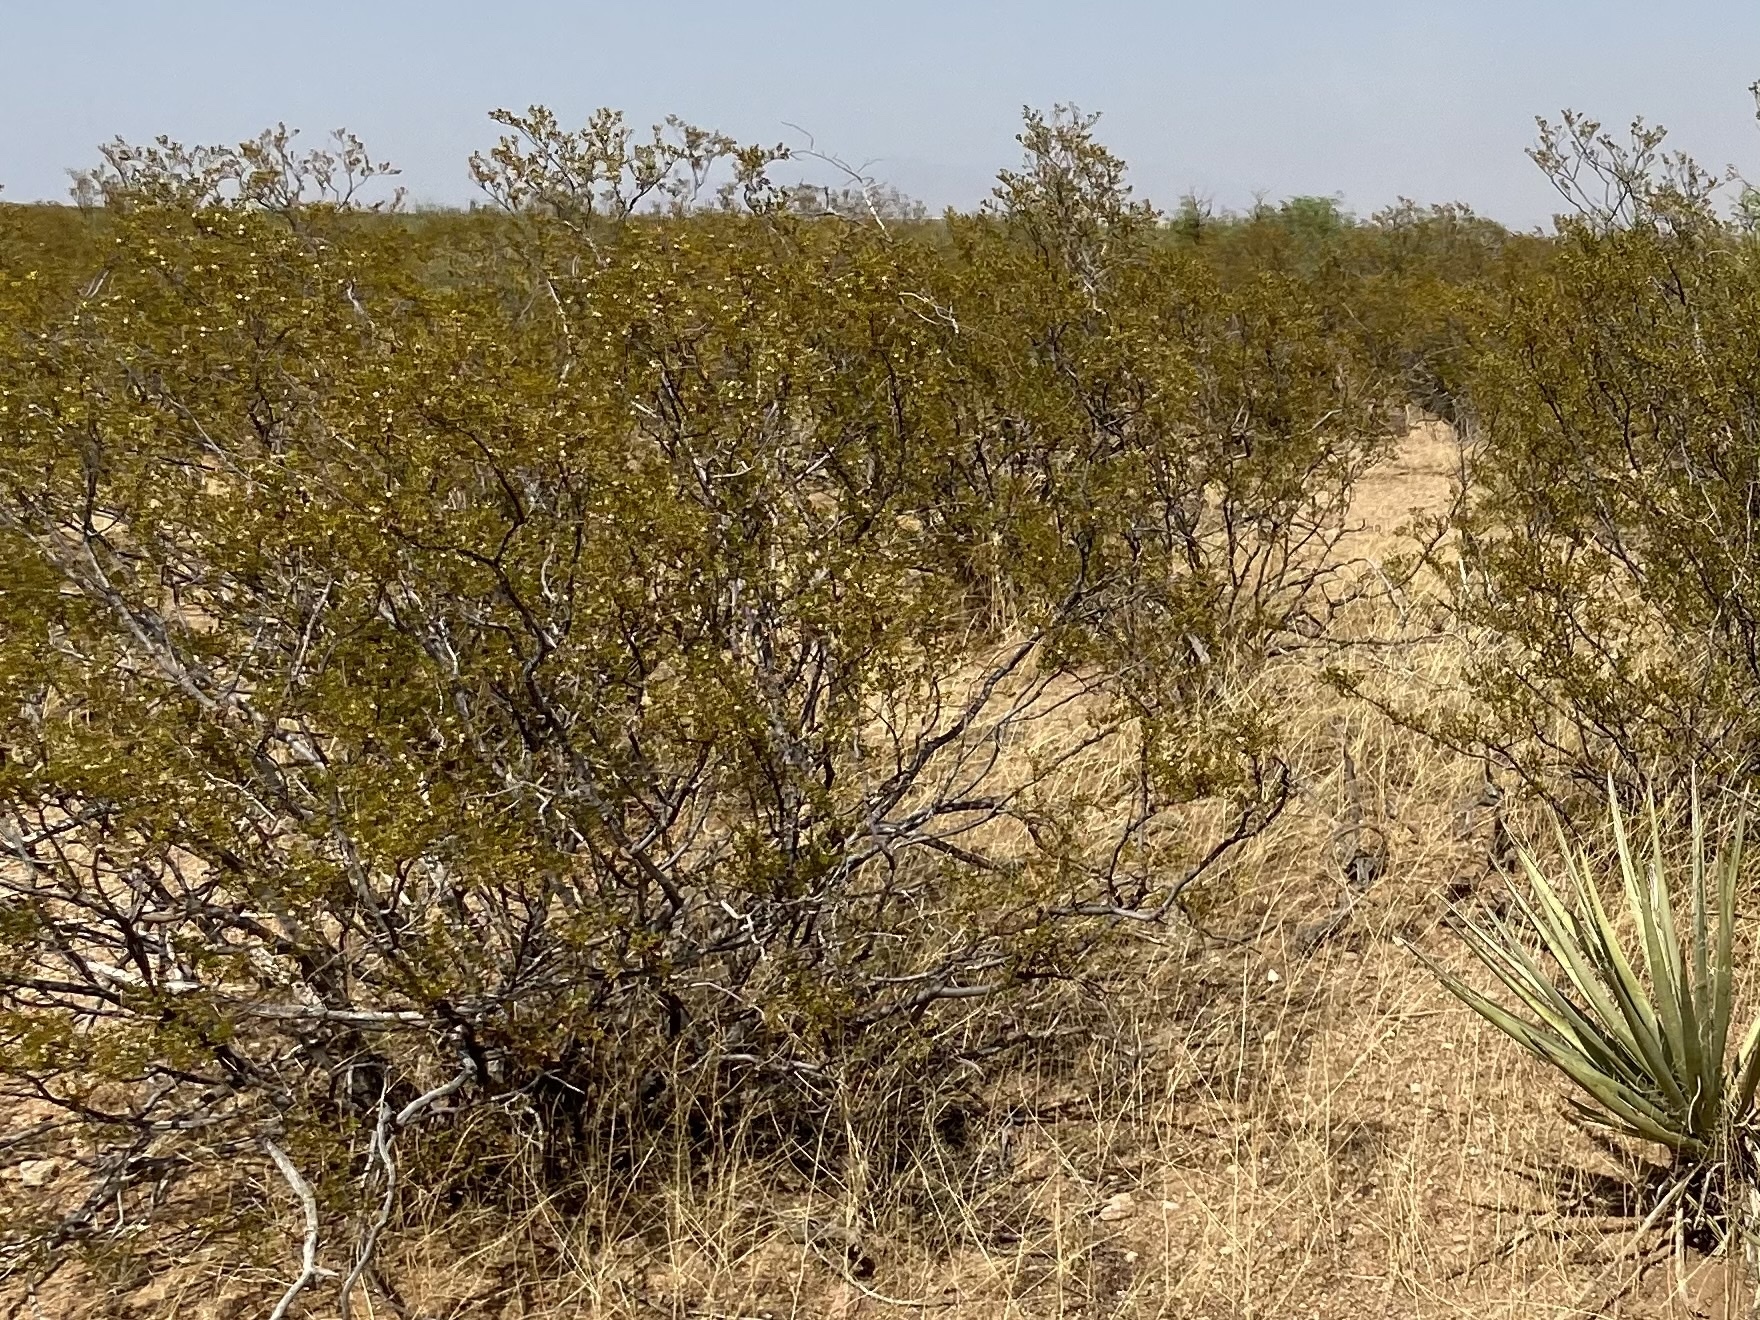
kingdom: Plantae
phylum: Tracheophyta
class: Magnoliopsida
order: Zygophyllales
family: Zygophyllaceae
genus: Larrea
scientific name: Larrea tridentata
